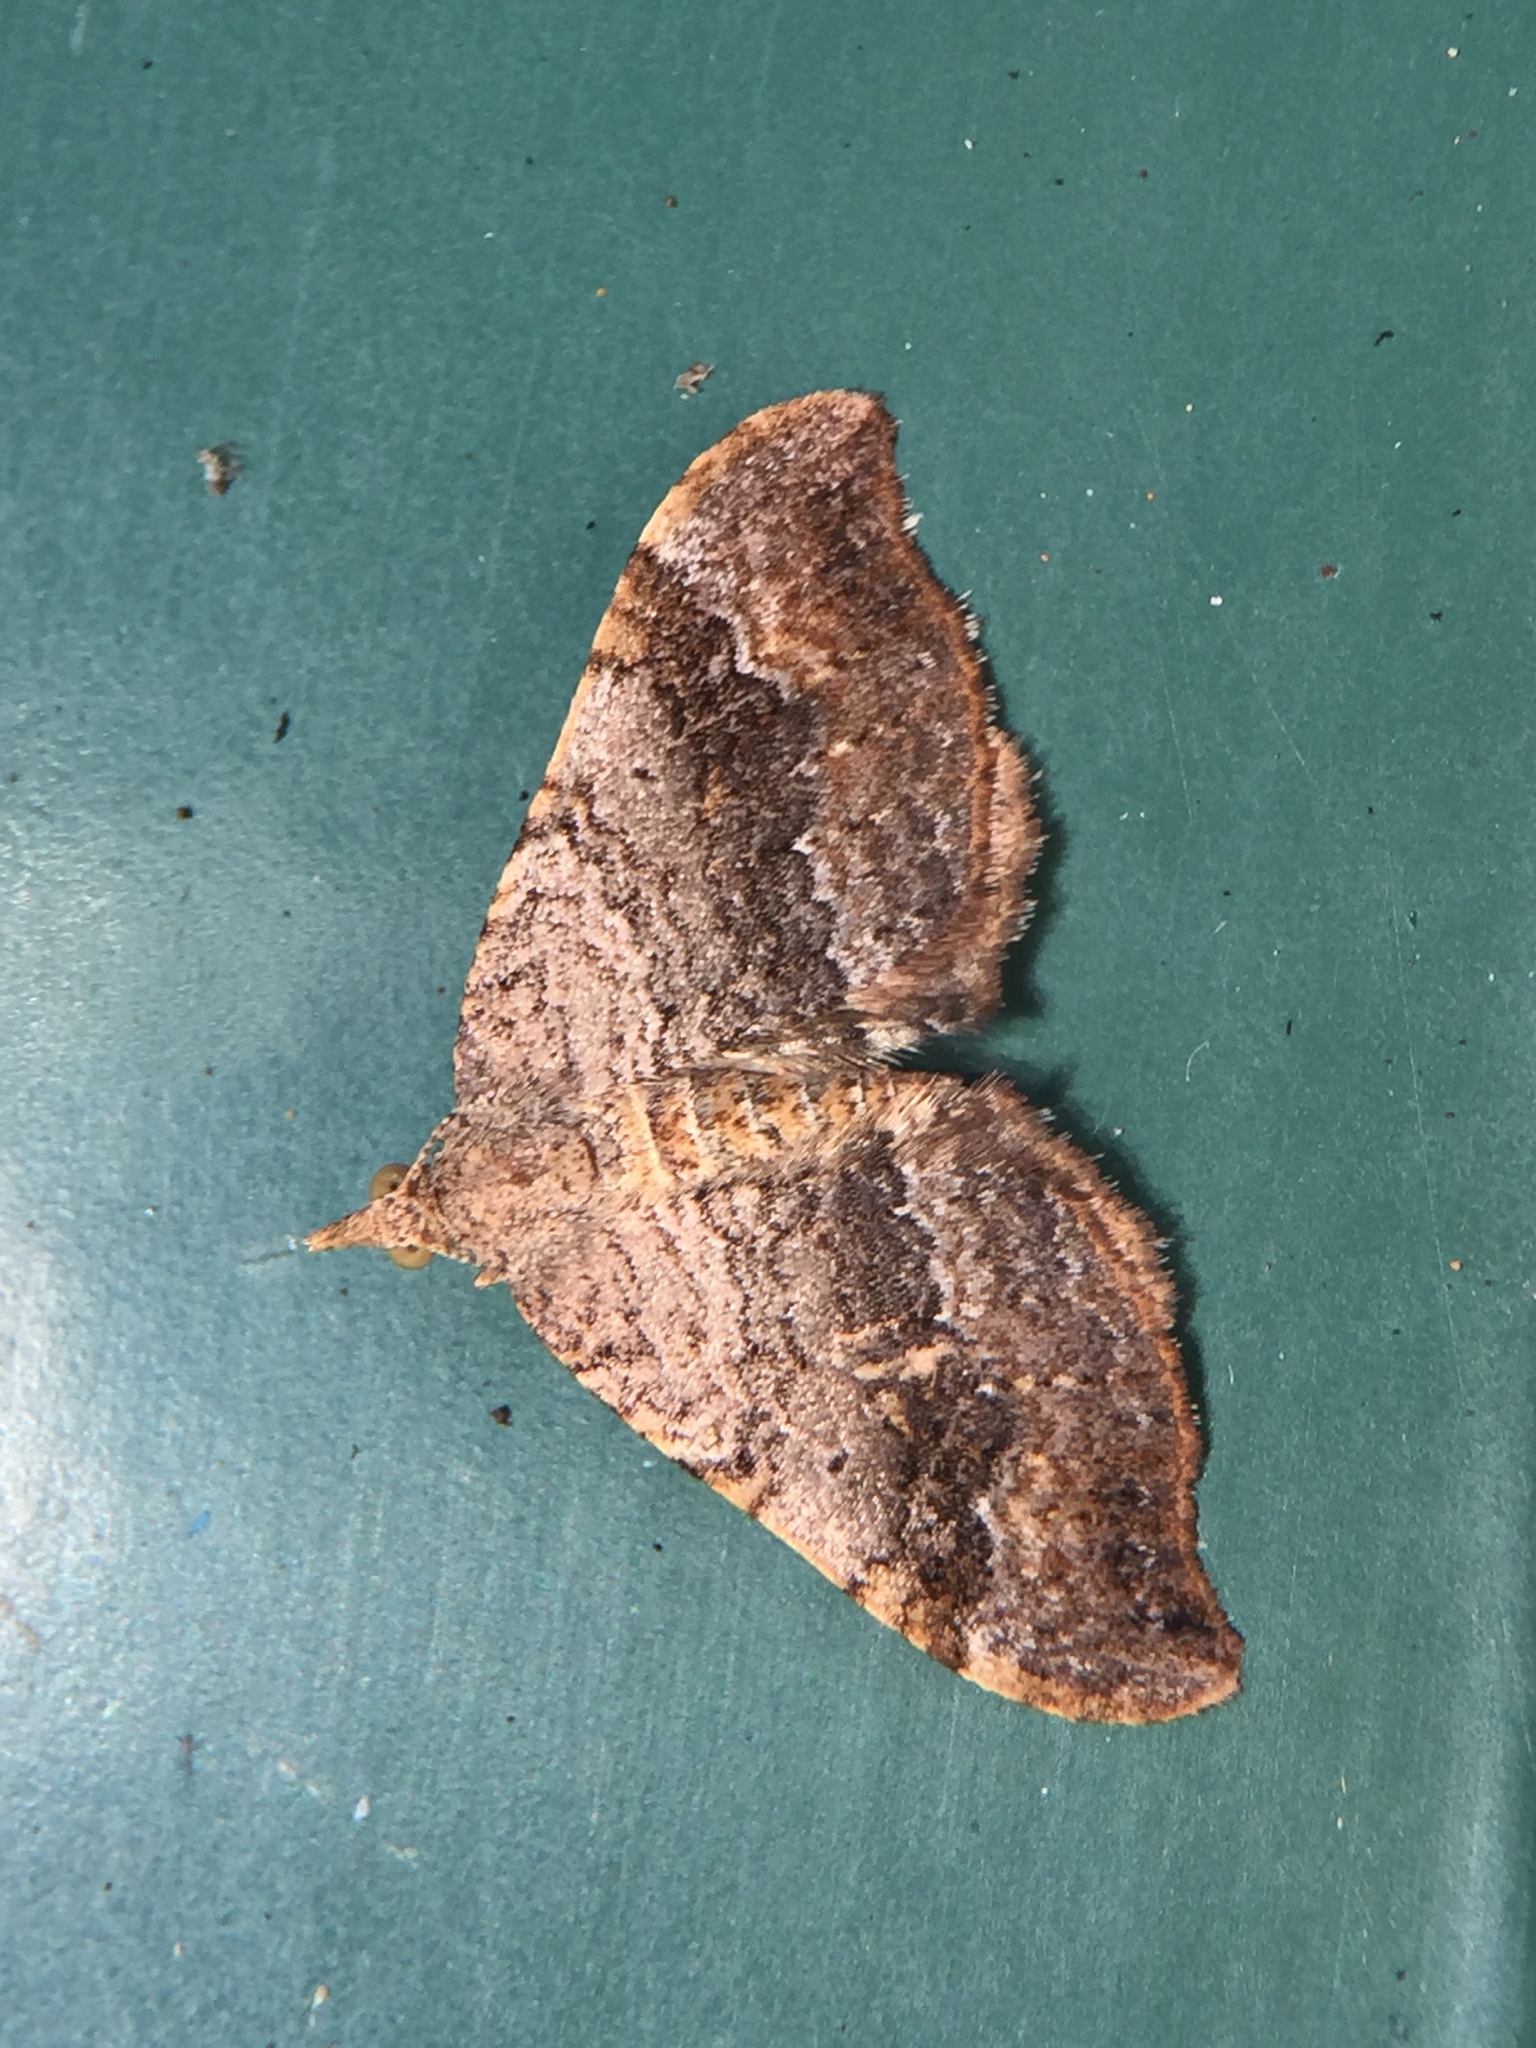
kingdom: Animalia
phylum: Arthropoda
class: Insecta
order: Lepidoptera
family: Geometridae
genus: Homodotis
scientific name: Homodotis megaspilata
